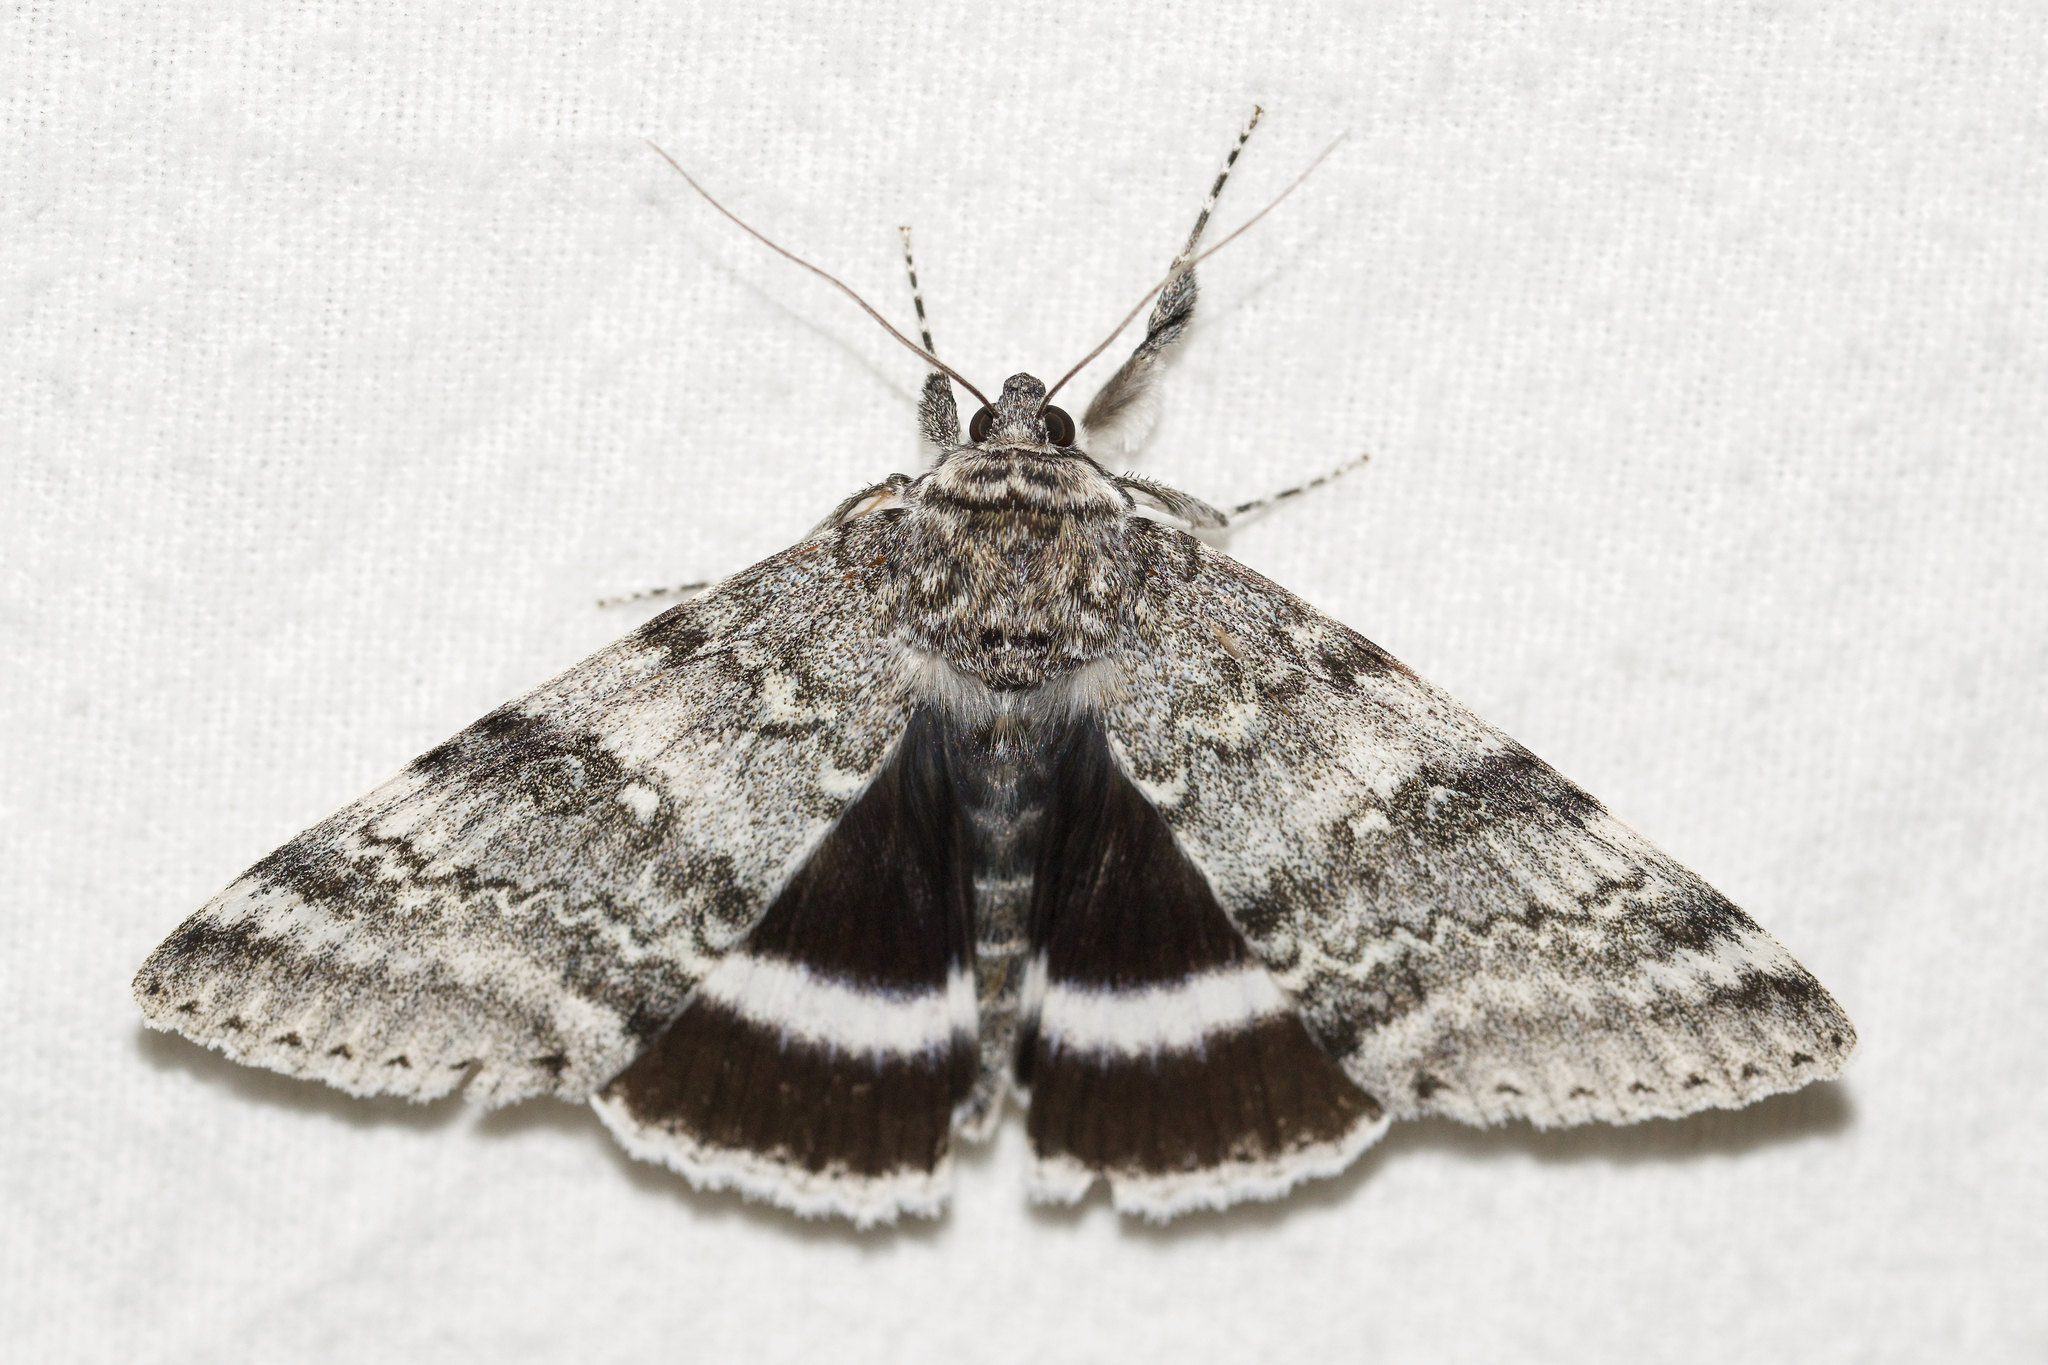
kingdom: Animalia
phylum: Arthropoda
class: Insecta
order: Lepidoptera
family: Erebidae
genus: Catocala
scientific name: Catocala relicta
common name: White underwing
